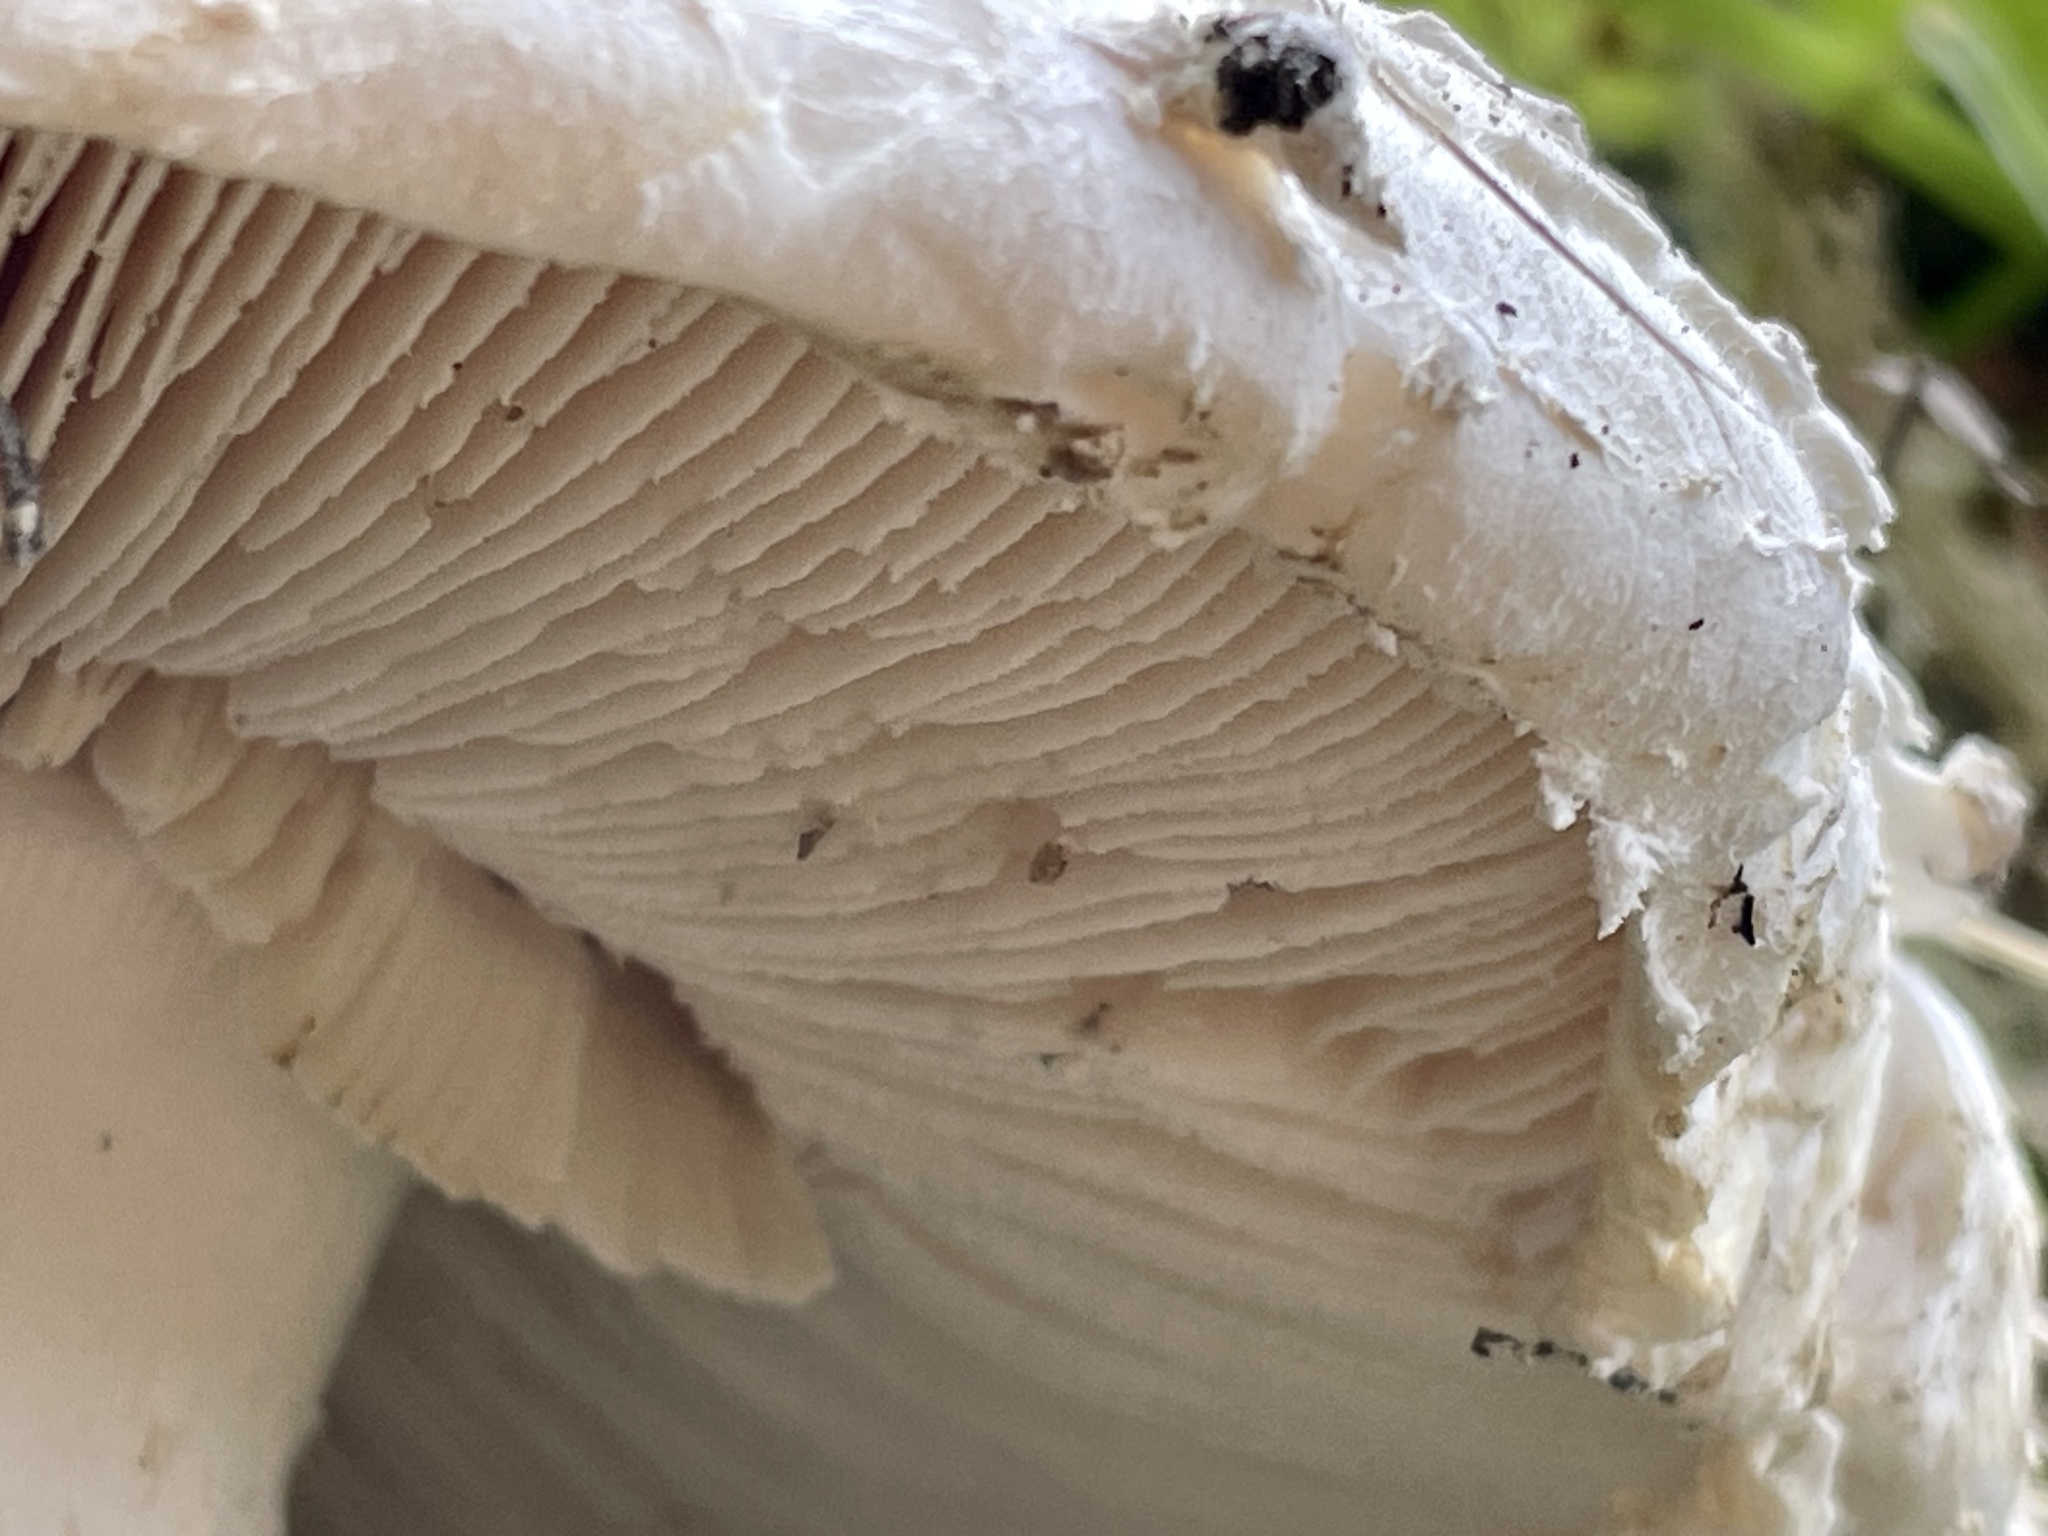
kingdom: Fungi
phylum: Basidiomycota
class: Agaricomycetes
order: Agaricales
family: Amanitaceae
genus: Amanita
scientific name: Amanita magniverrucata
